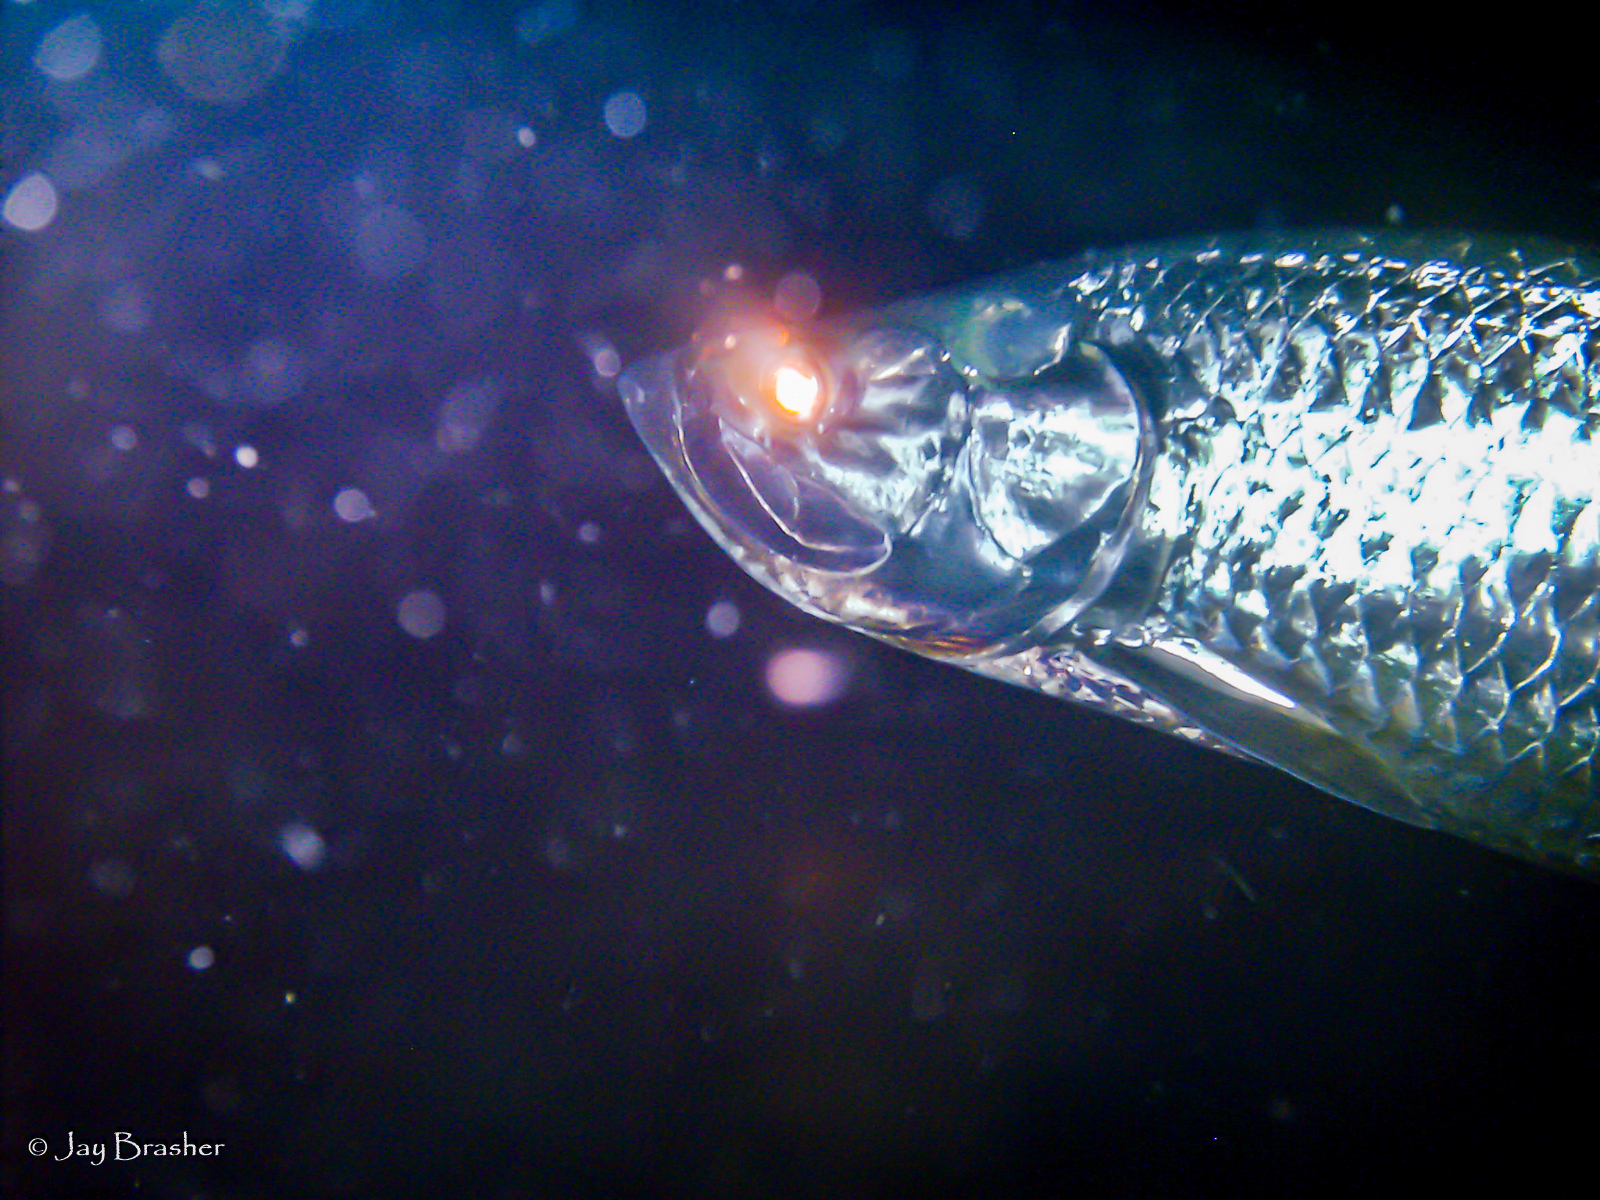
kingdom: Animalia
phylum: Chordata
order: Elopiformes
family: Megalopidae
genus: Megalops
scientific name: Megalops atlanticus
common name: Tarpon
